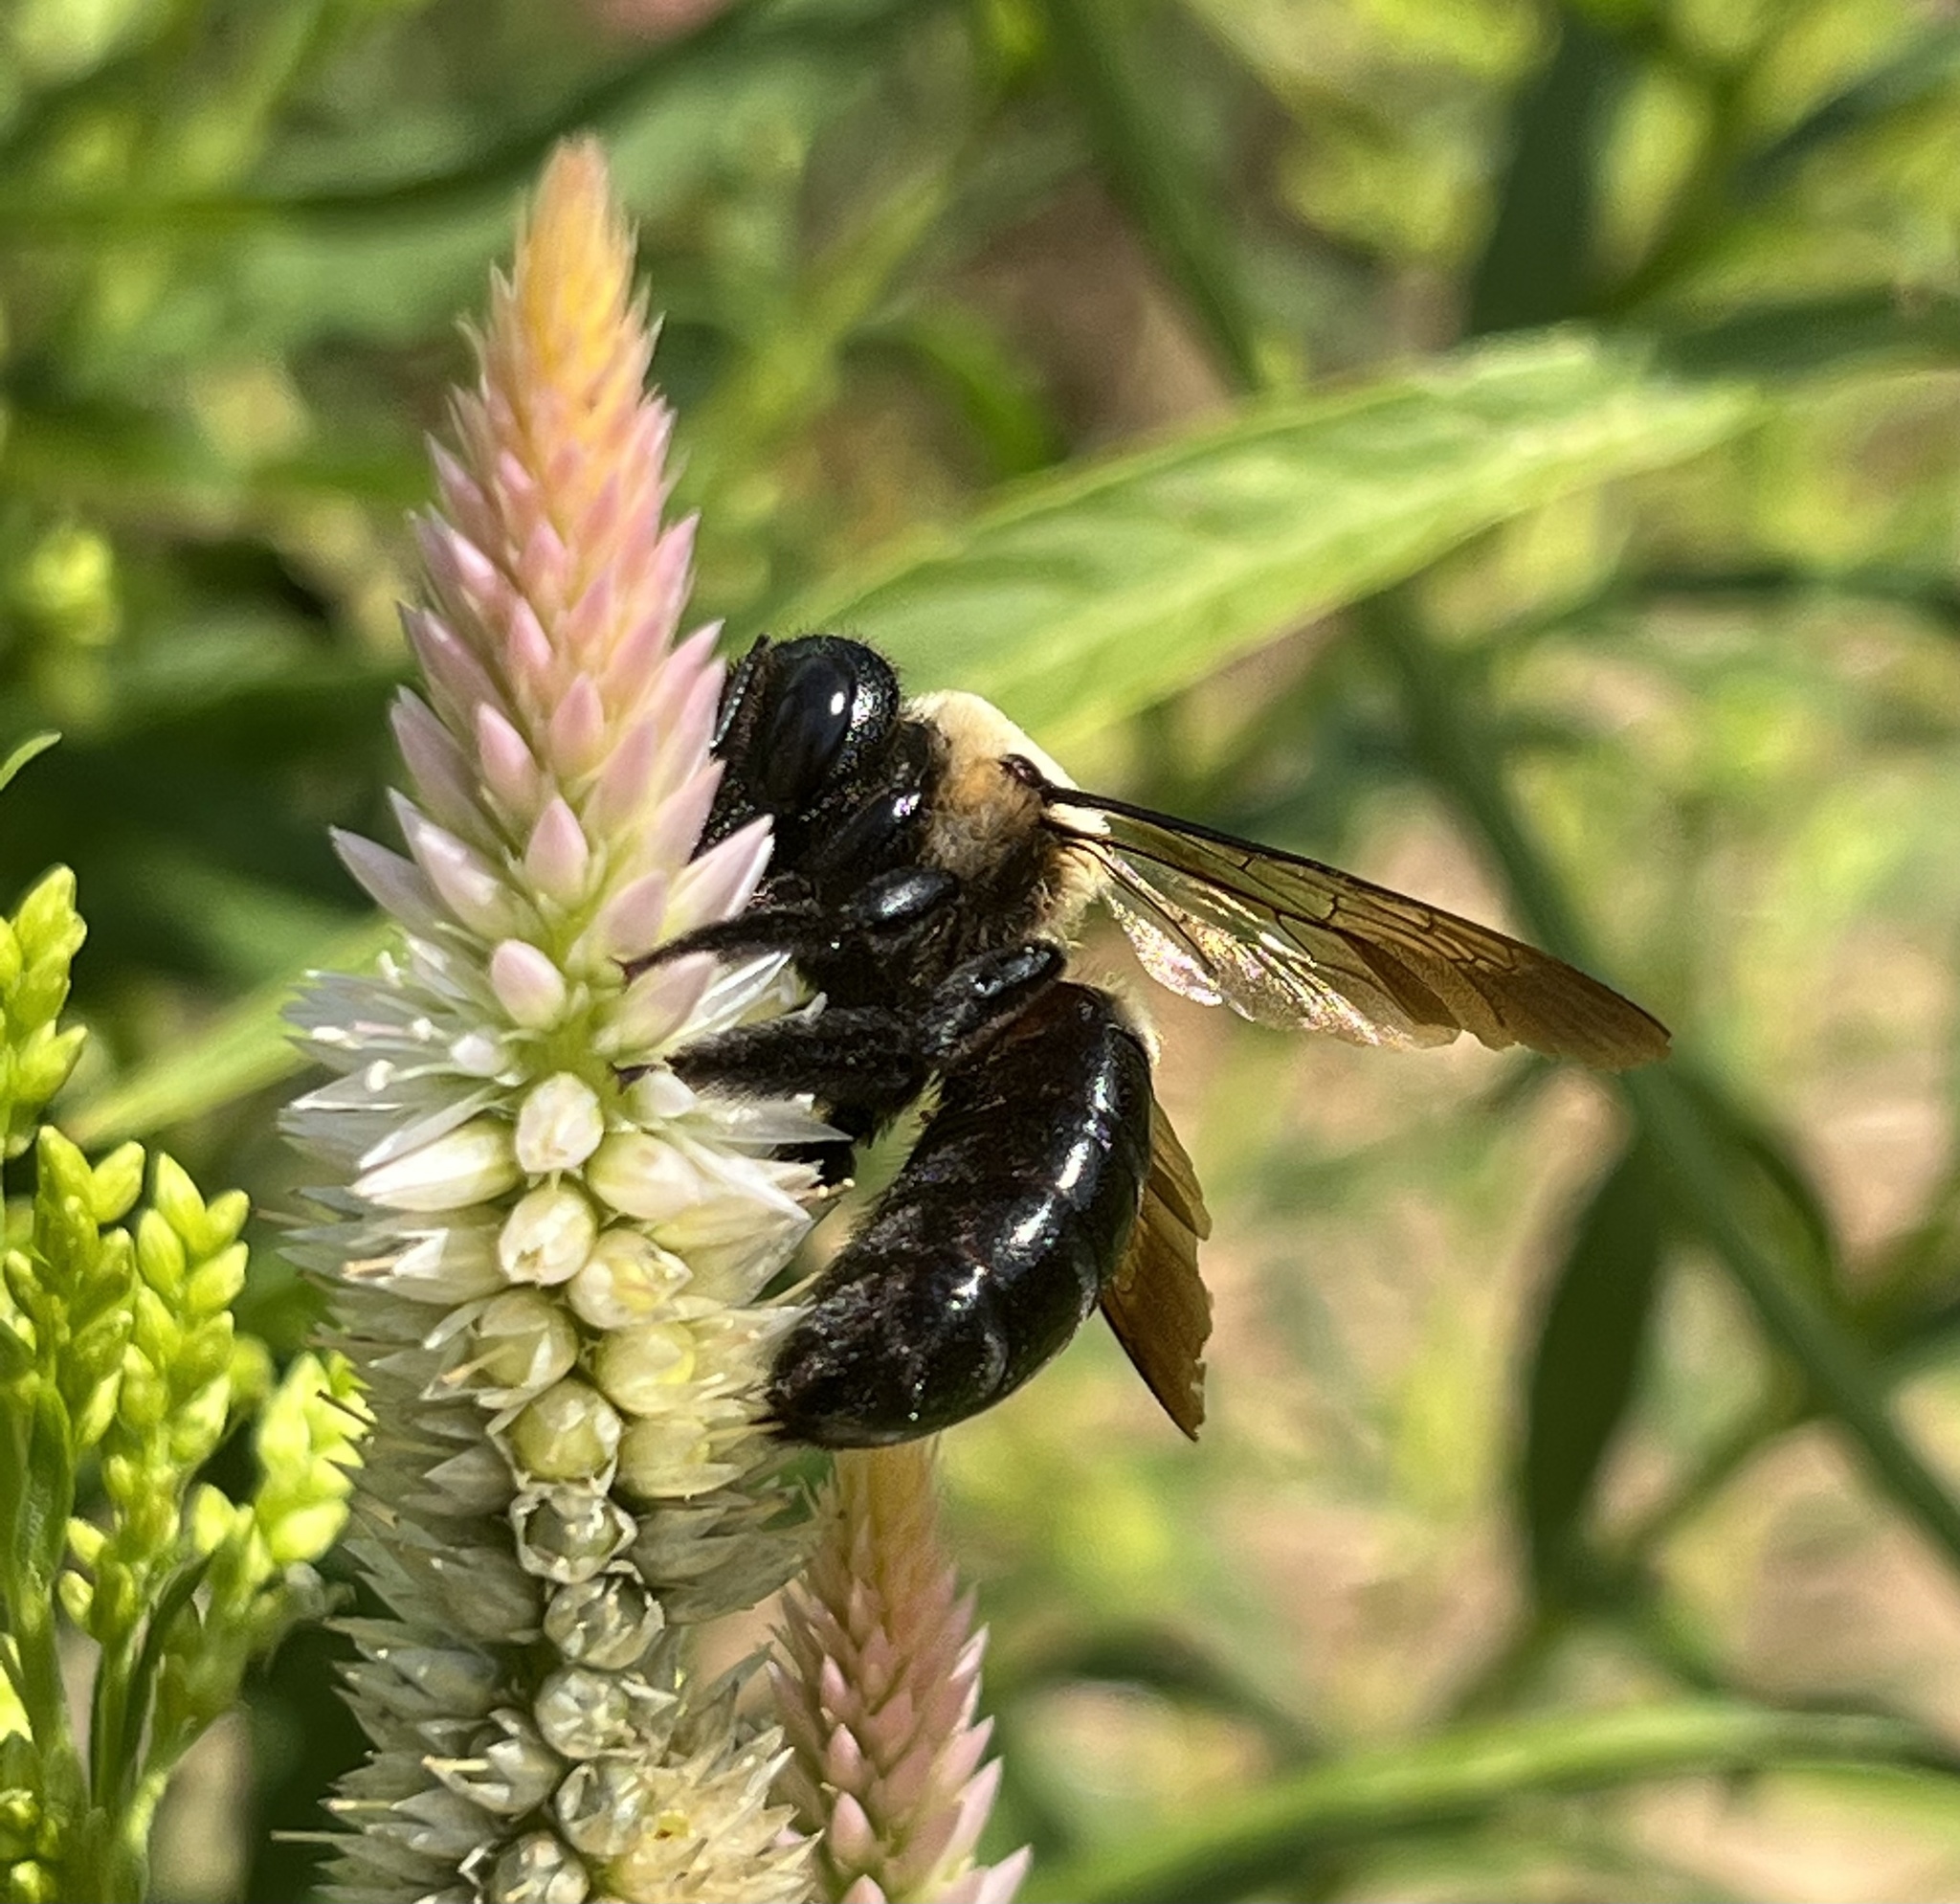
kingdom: Animalia
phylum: Arthropoda
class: Insecta
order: Hymenoptera
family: Apidae
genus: Xylocopa
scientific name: Xylocopa virginica
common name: Carpenter bee
